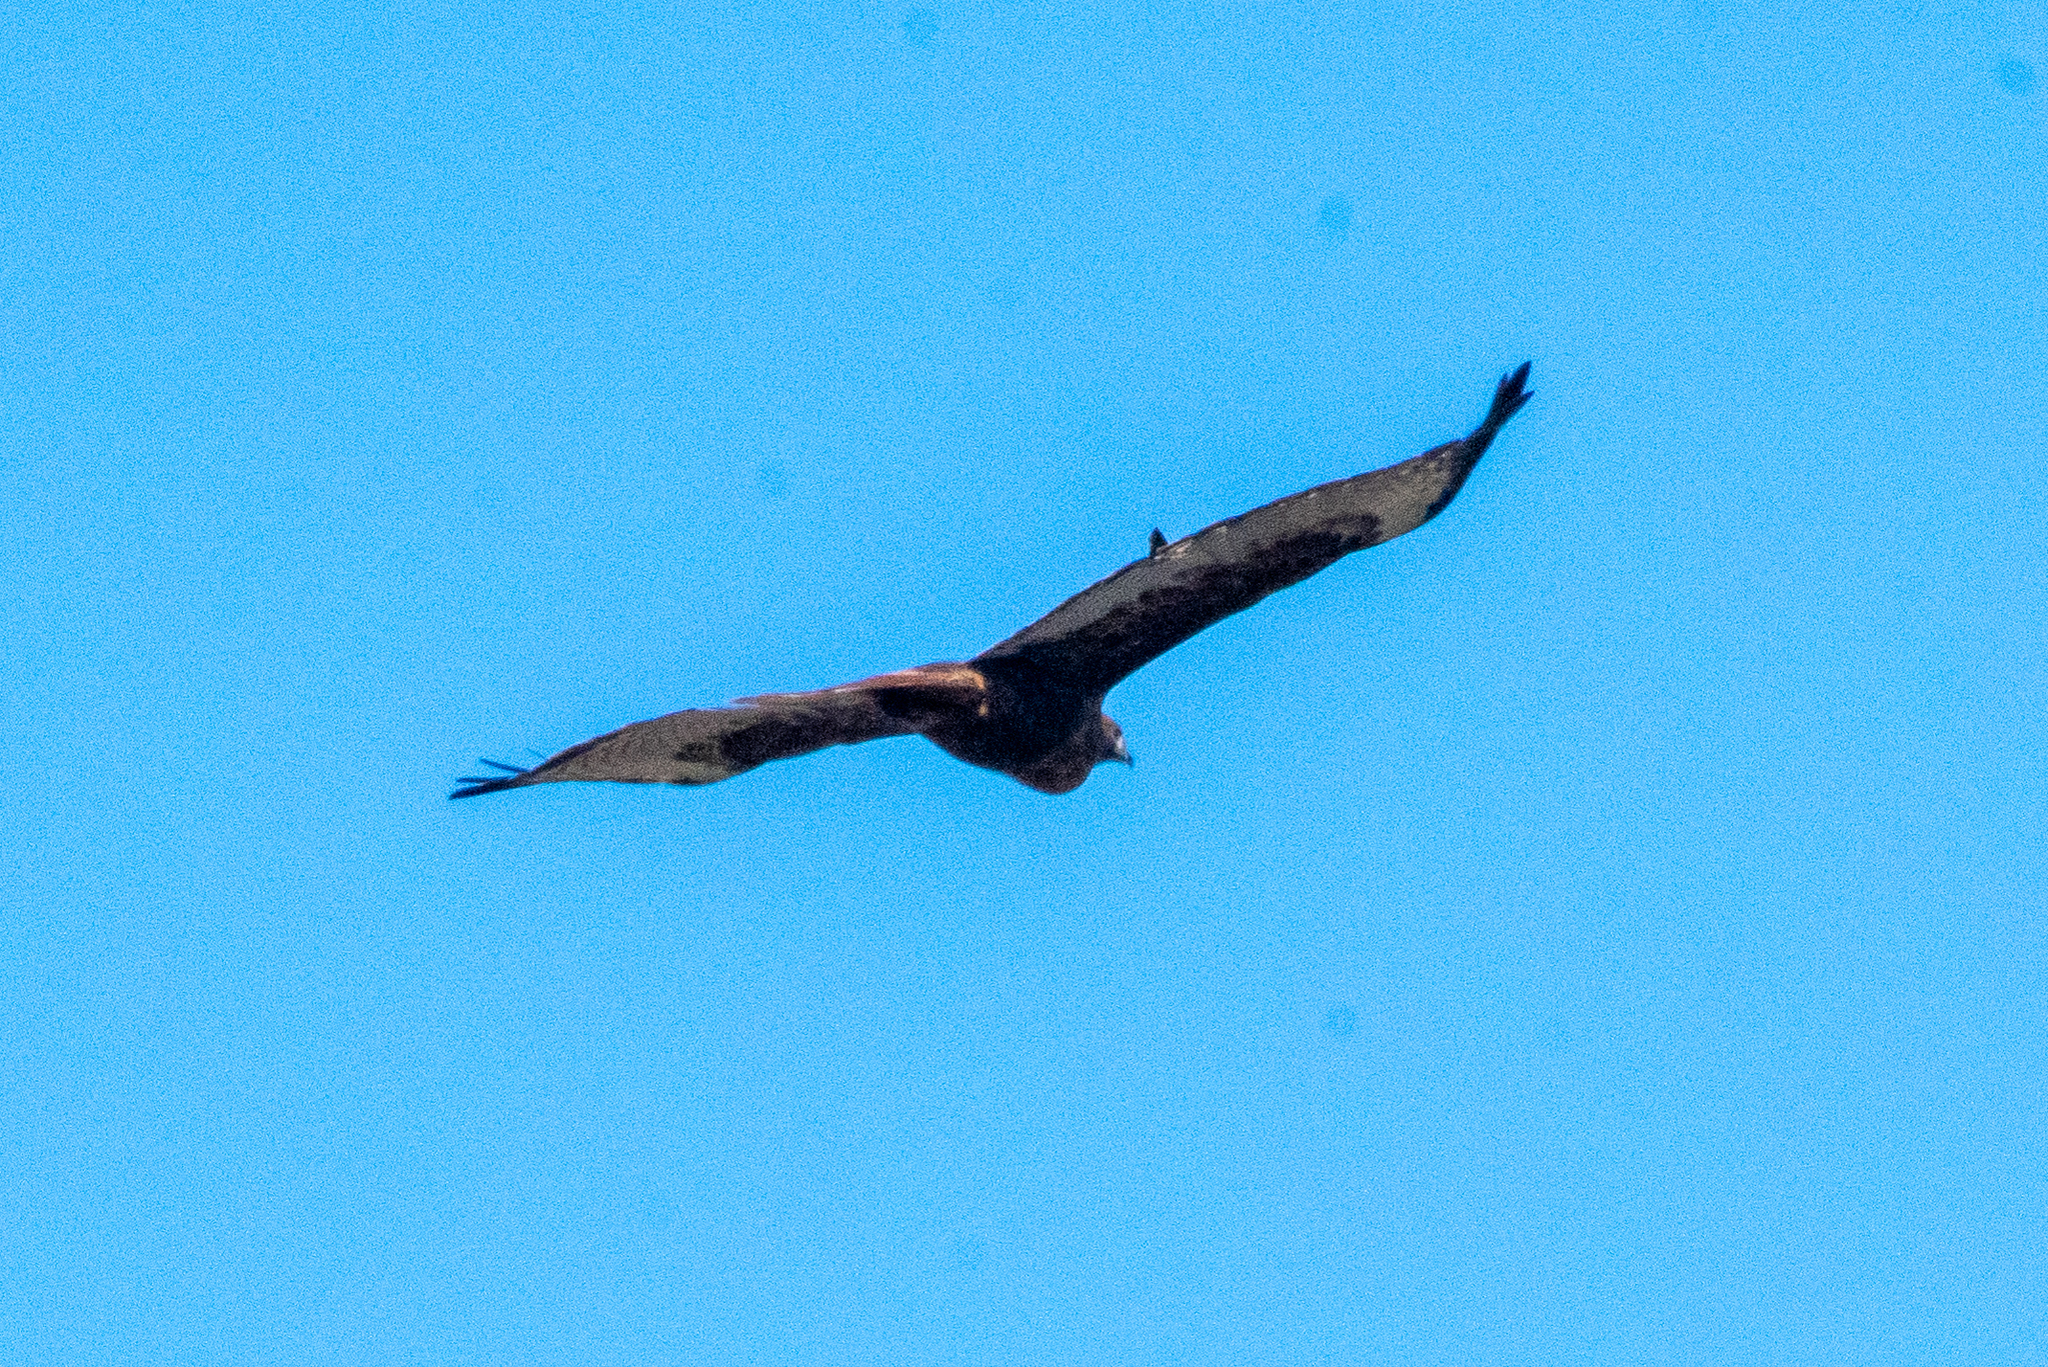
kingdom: Animalia
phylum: Chordata
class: Aves
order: Accipitriformes
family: Accipitridae
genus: Buteo
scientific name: Buteo jamaicensis
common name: Red-tailed hawk
